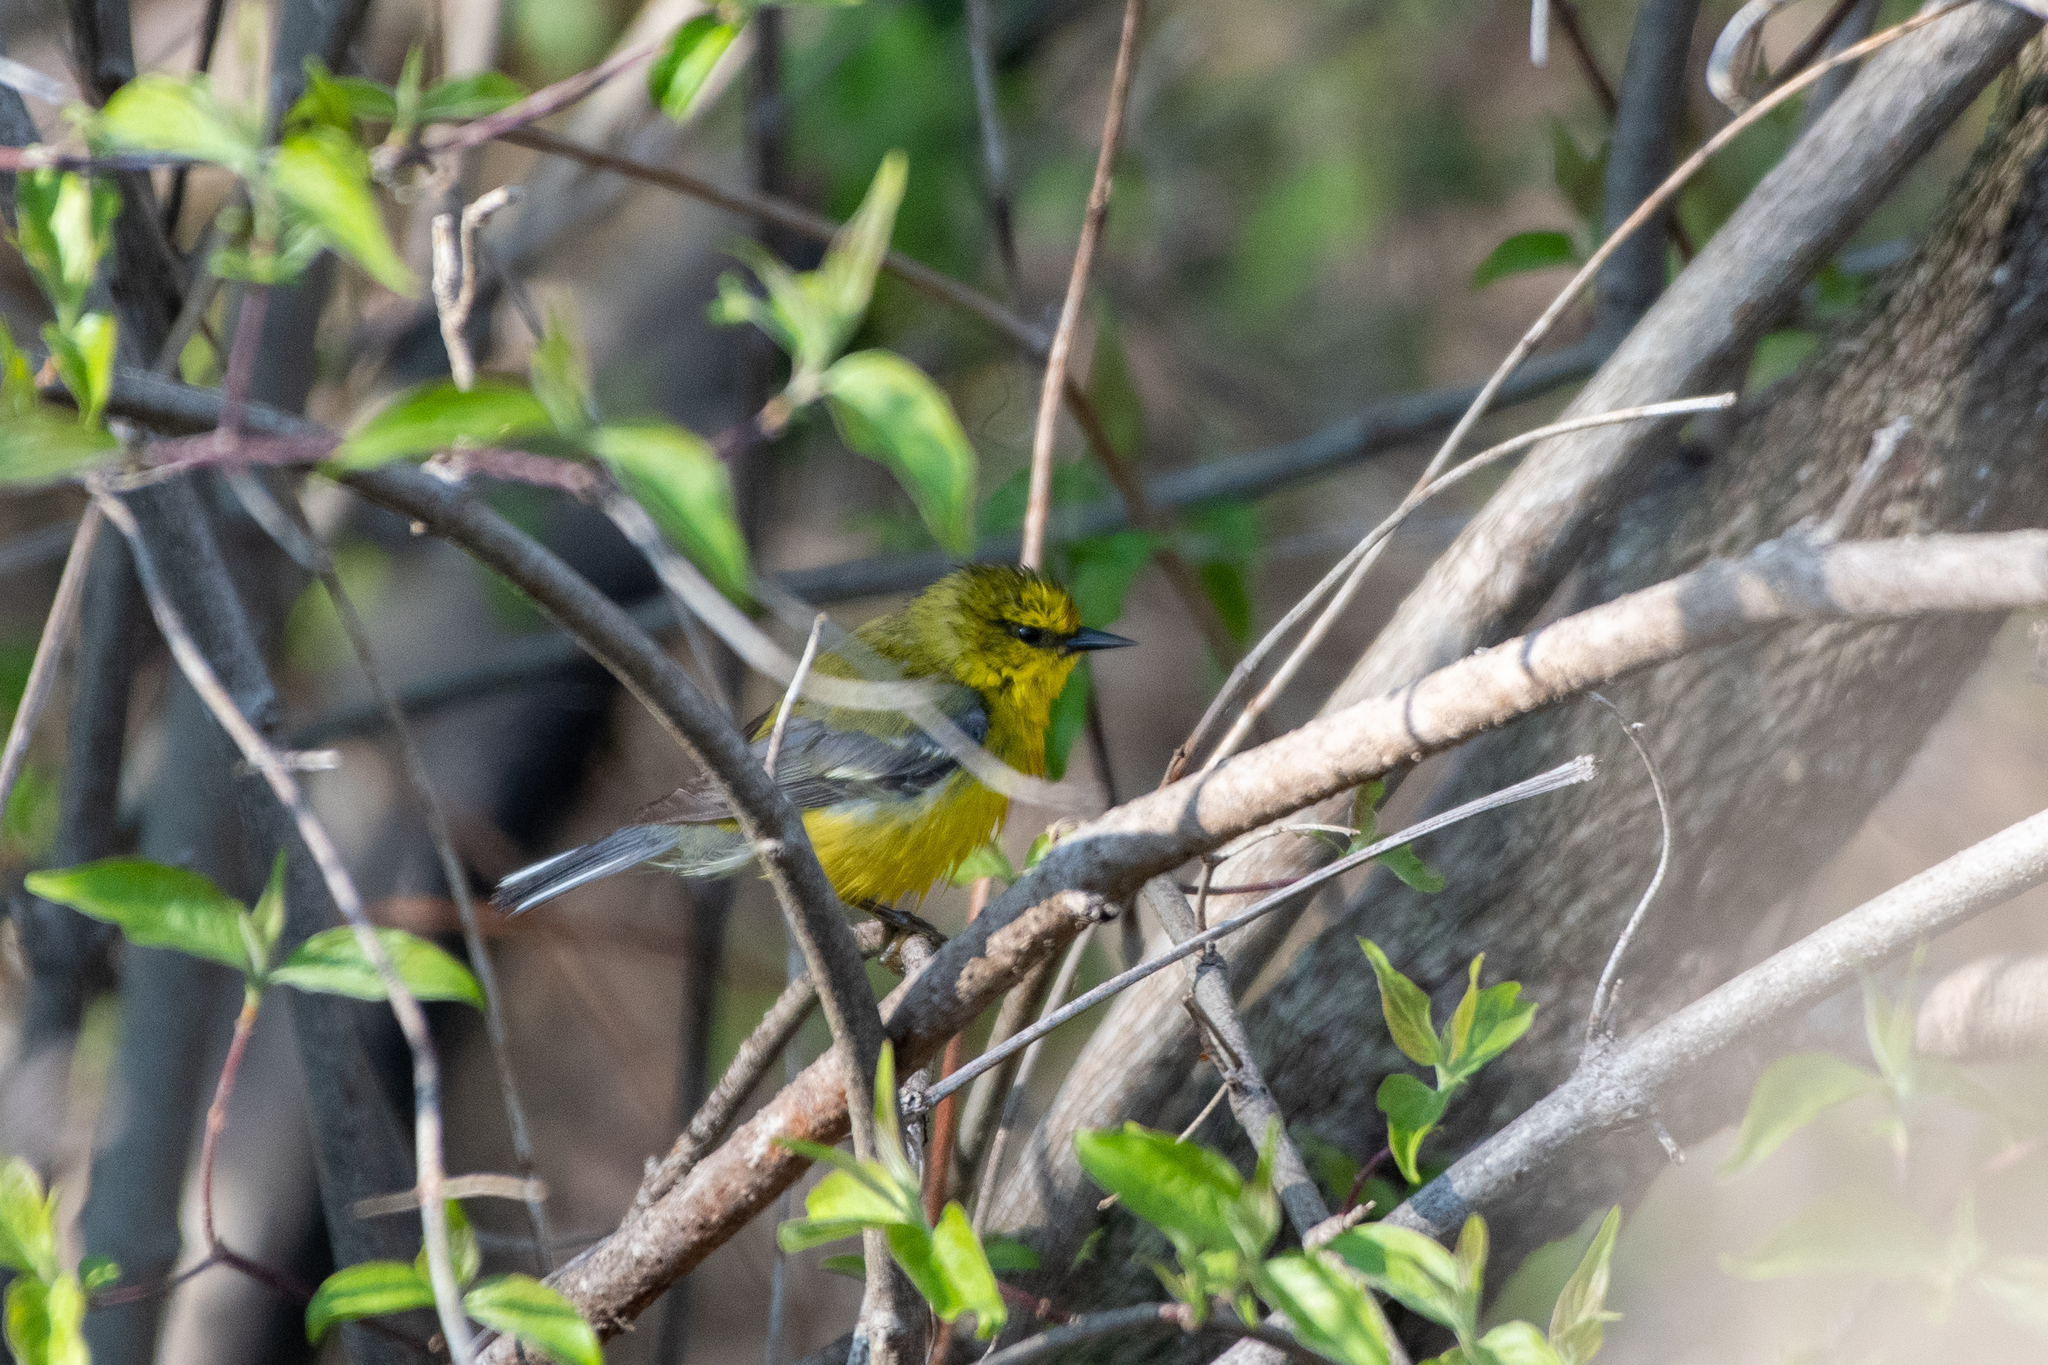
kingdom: Animalia
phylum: Chordata
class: Aves
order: Passeriformes
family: Parulidae
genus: Vermivora
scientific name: Vermivora cyanoptera
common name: Blue-winged warbler
